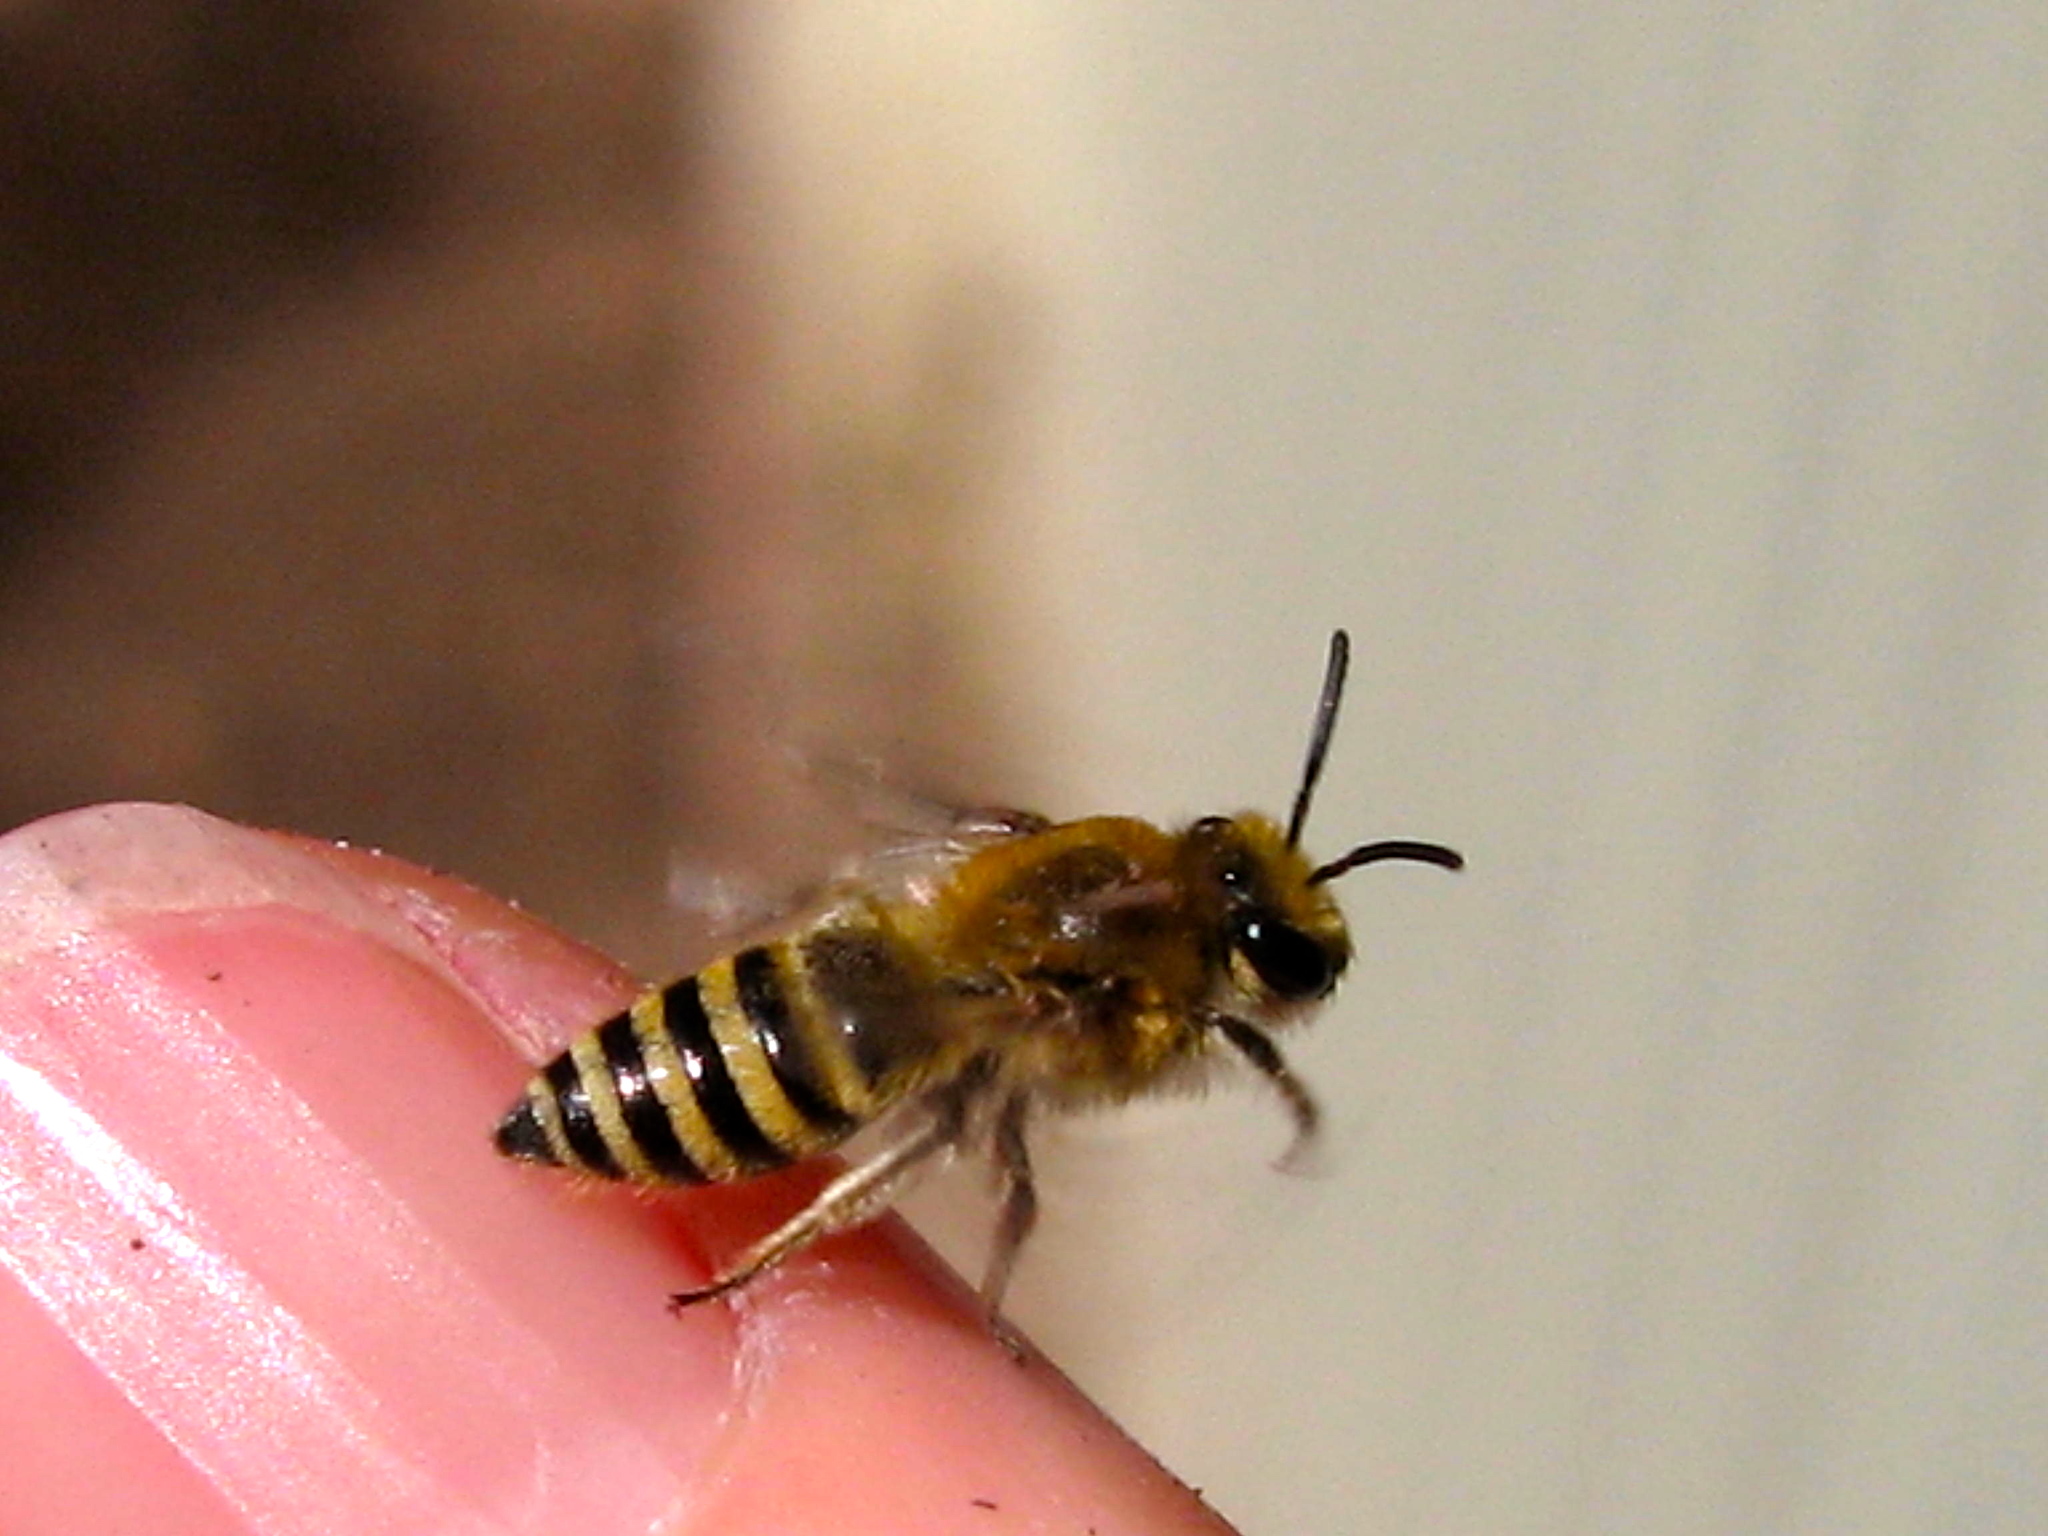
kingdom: Animalia
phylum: Arthropoda
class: Insecta
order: Hymenoptera
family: Colletidae
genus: Colletes
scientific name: Colletes slevini
